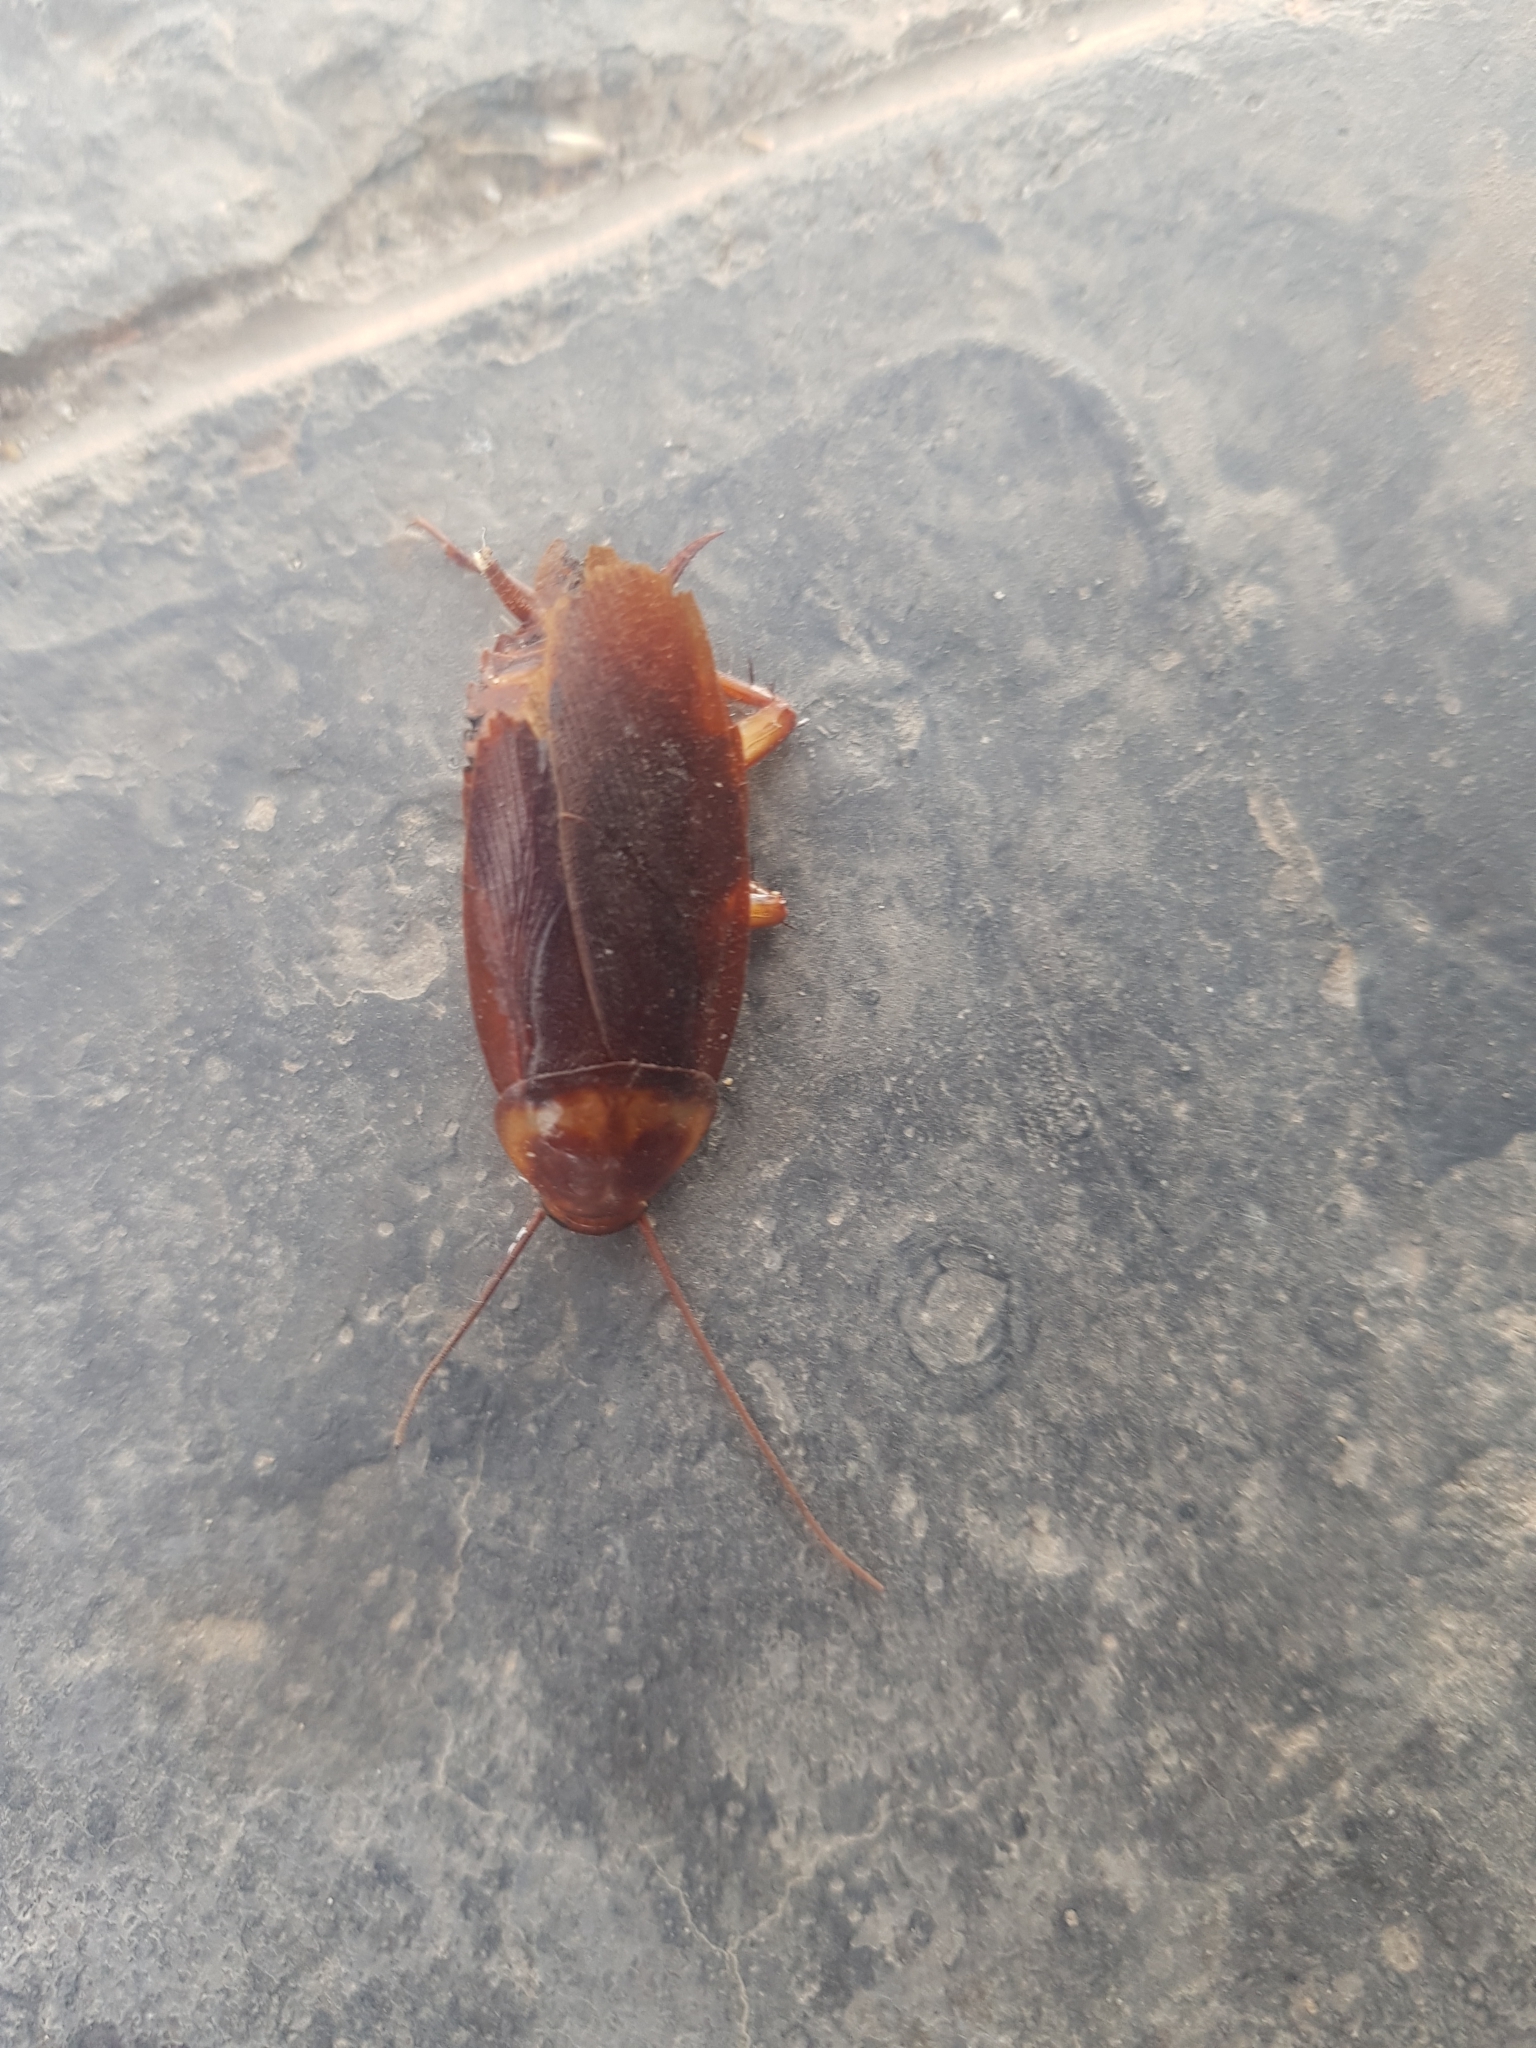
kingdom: Animalia
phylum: Arthropoda
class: Insecta
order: Blattodea
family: Blattidae
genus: Periplaneta
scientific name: Periplaneta americana
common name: American cockroach
